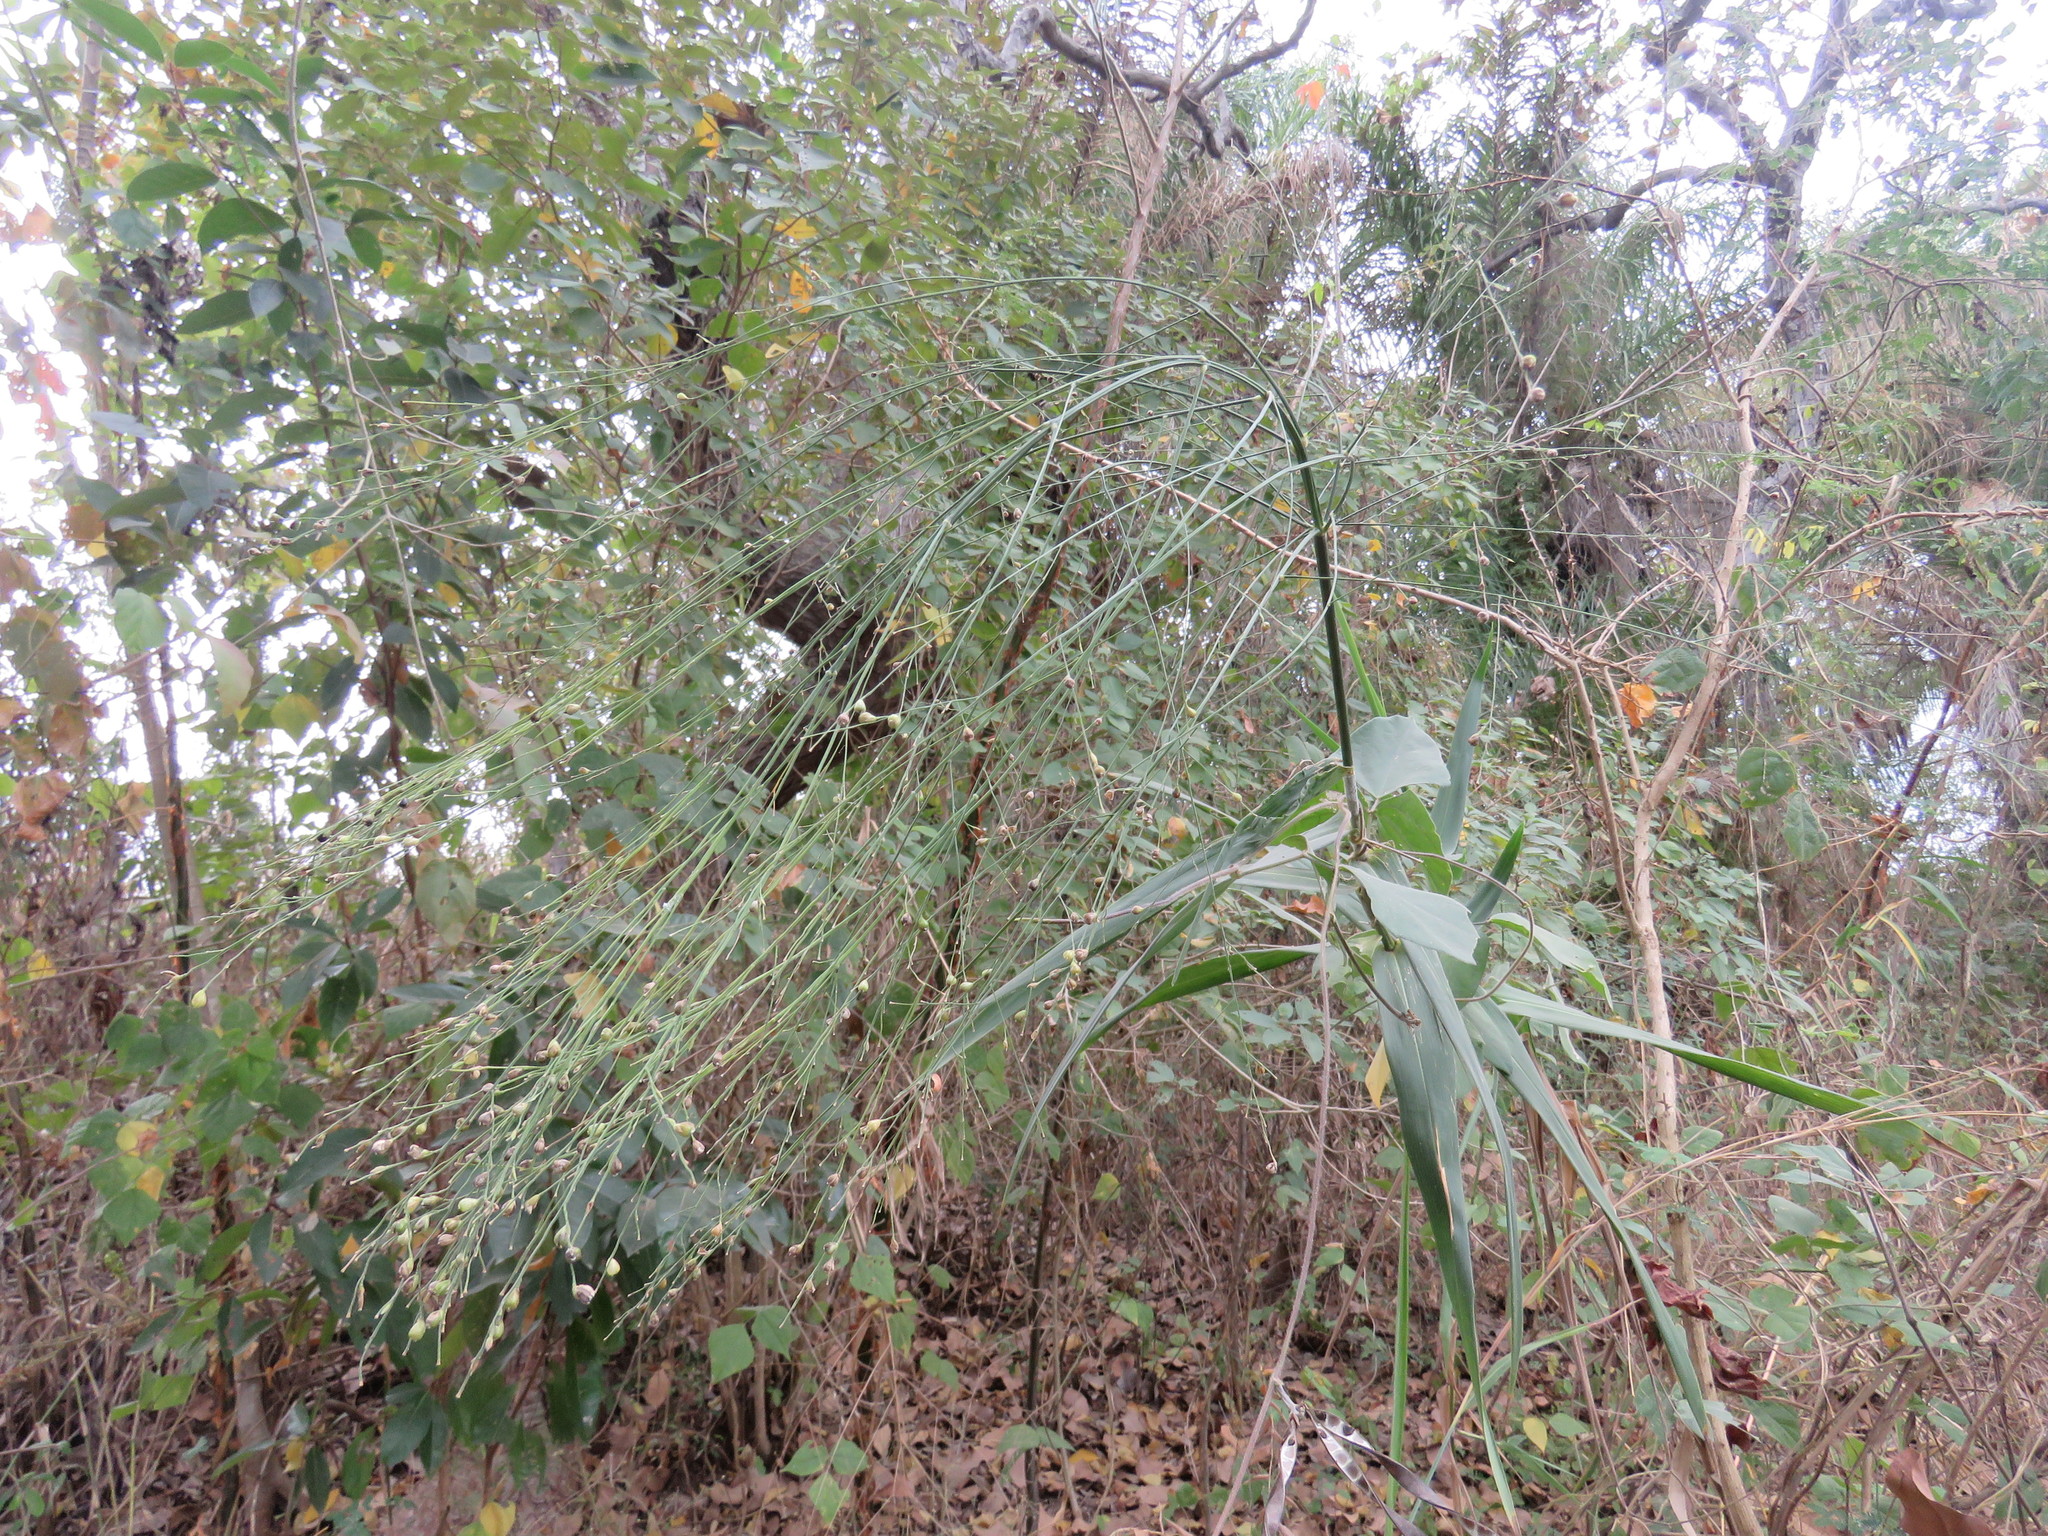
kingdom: Plantae
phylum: Tracheophyta
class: Liliopsida
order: Poales
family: Poaceae
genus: Lasiacis
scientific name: Lasiacis procerrima
